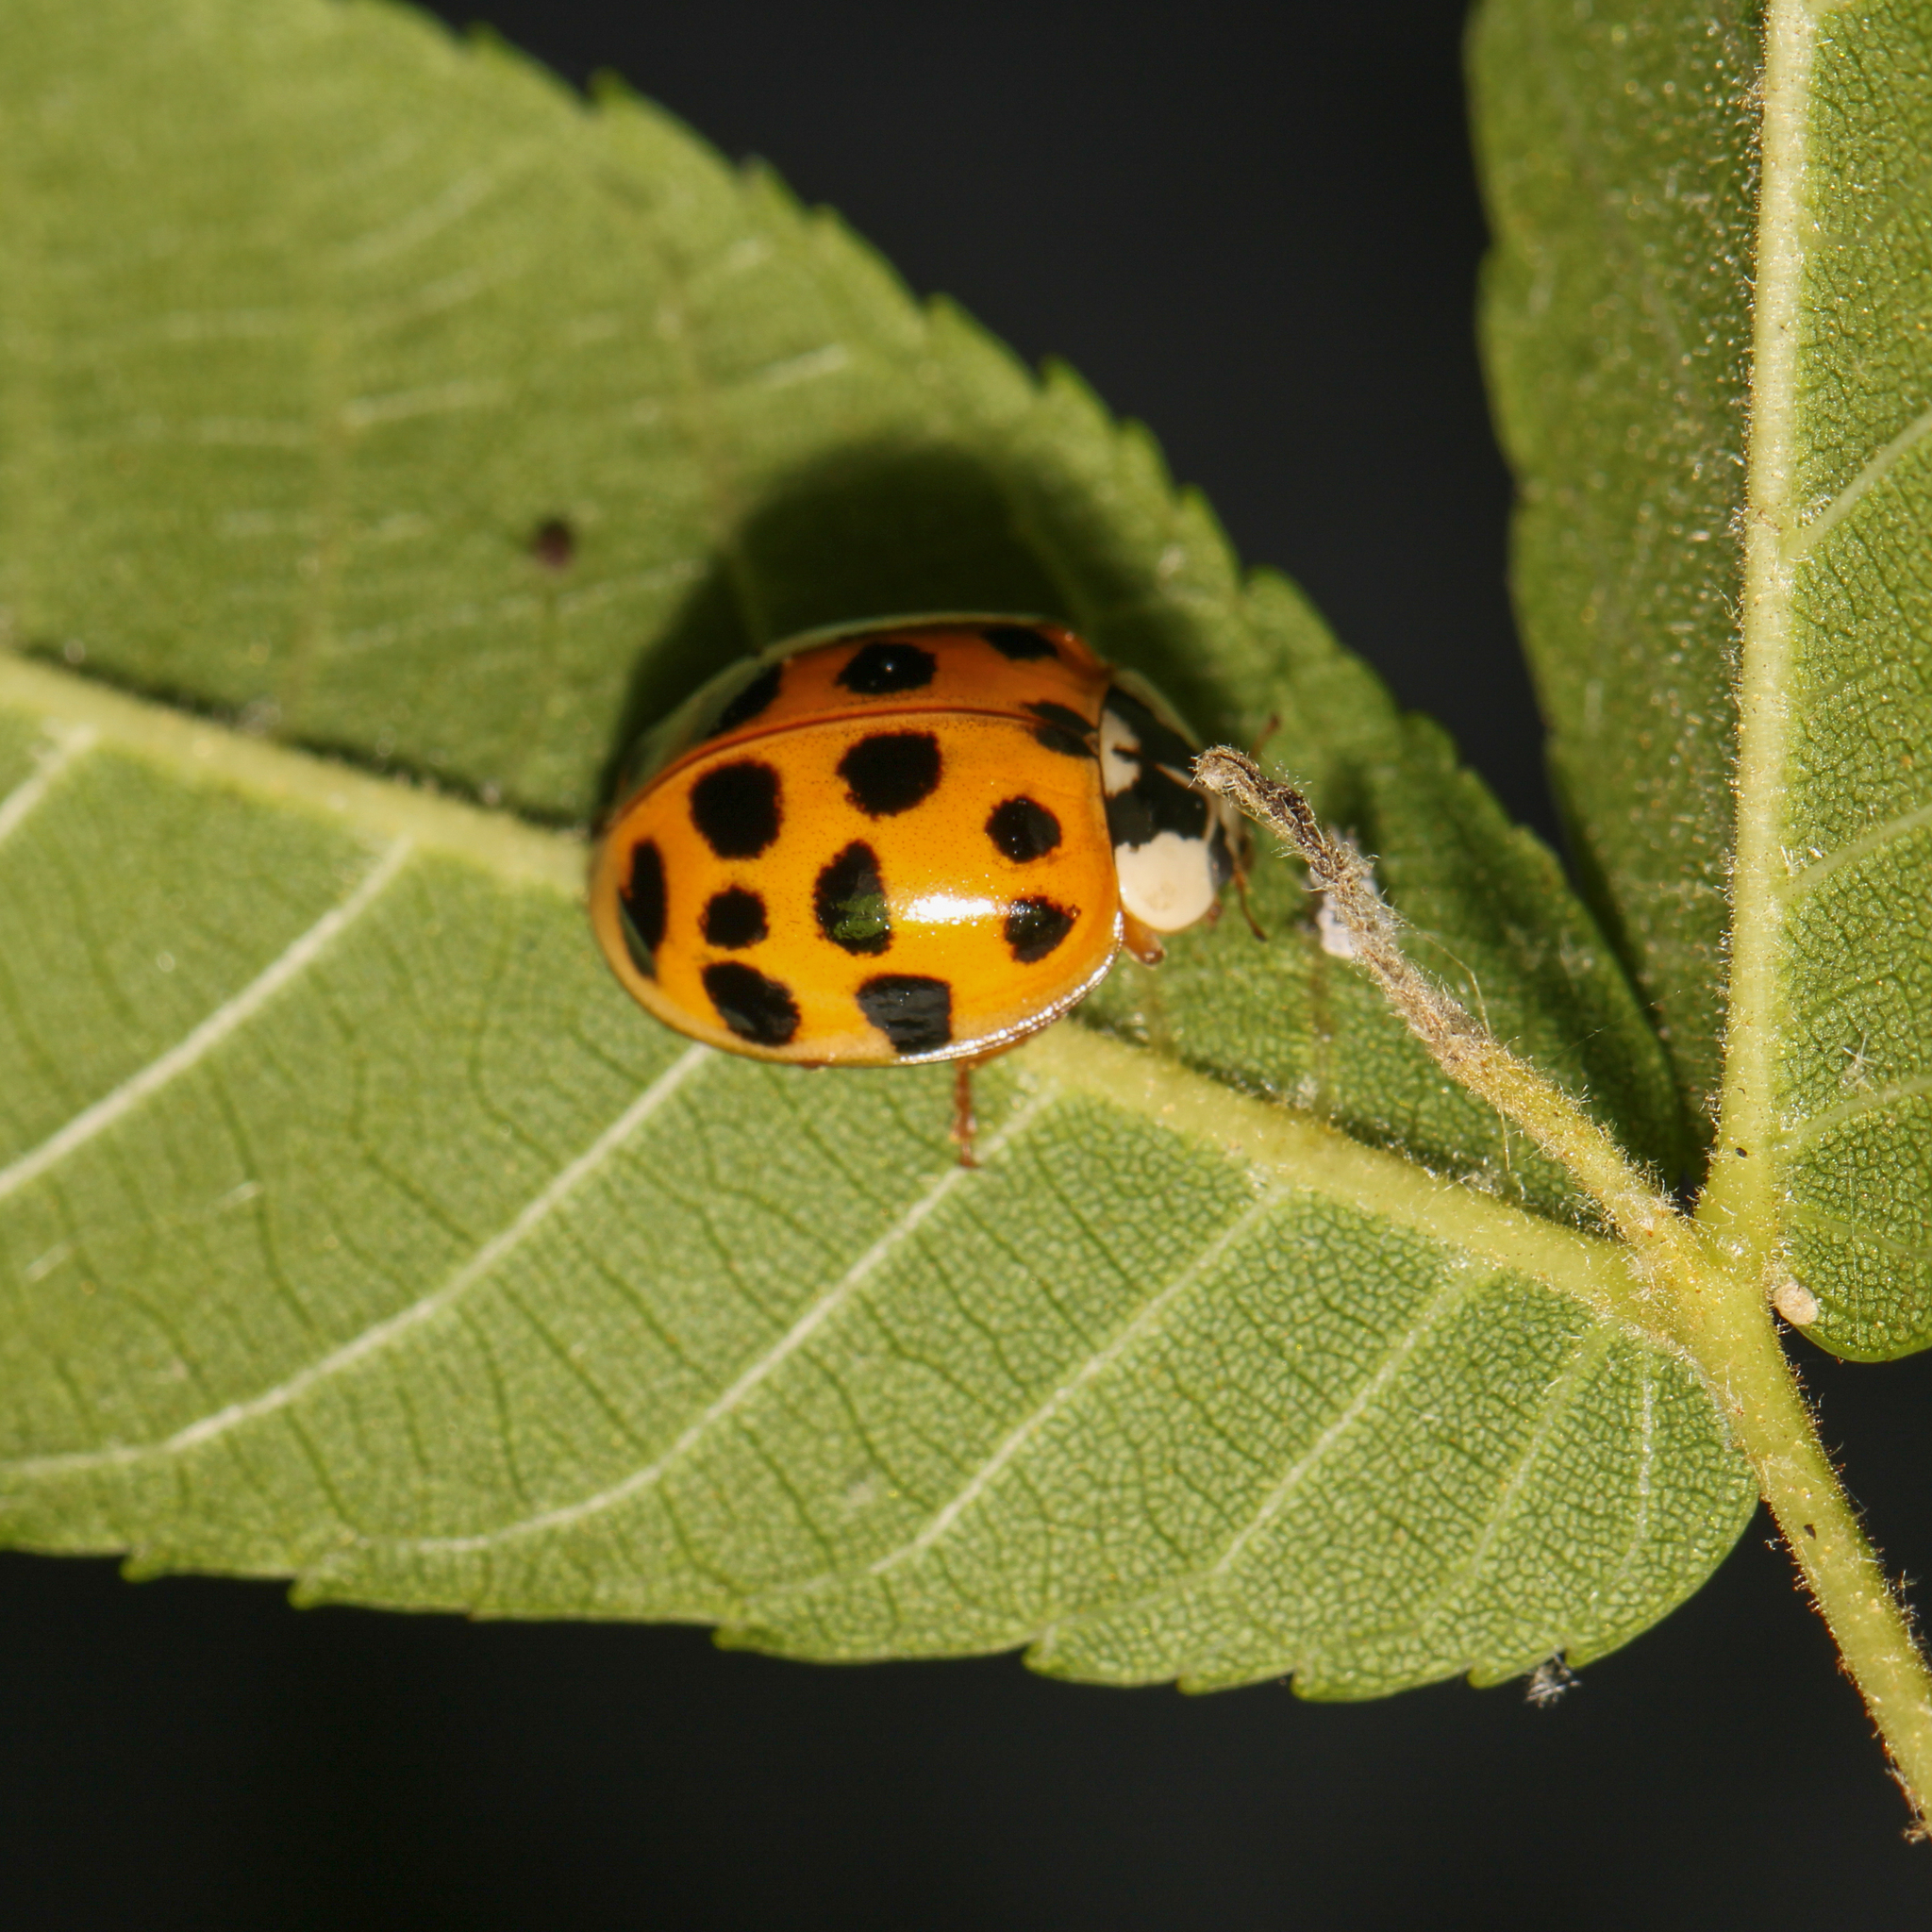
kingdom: Animalia
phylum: Arthropoda
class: Insecta
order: Coleoptera
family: Coccinellidae
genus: Harmonia
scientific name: Harmonia axyridis
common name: Harlequin ladybird
